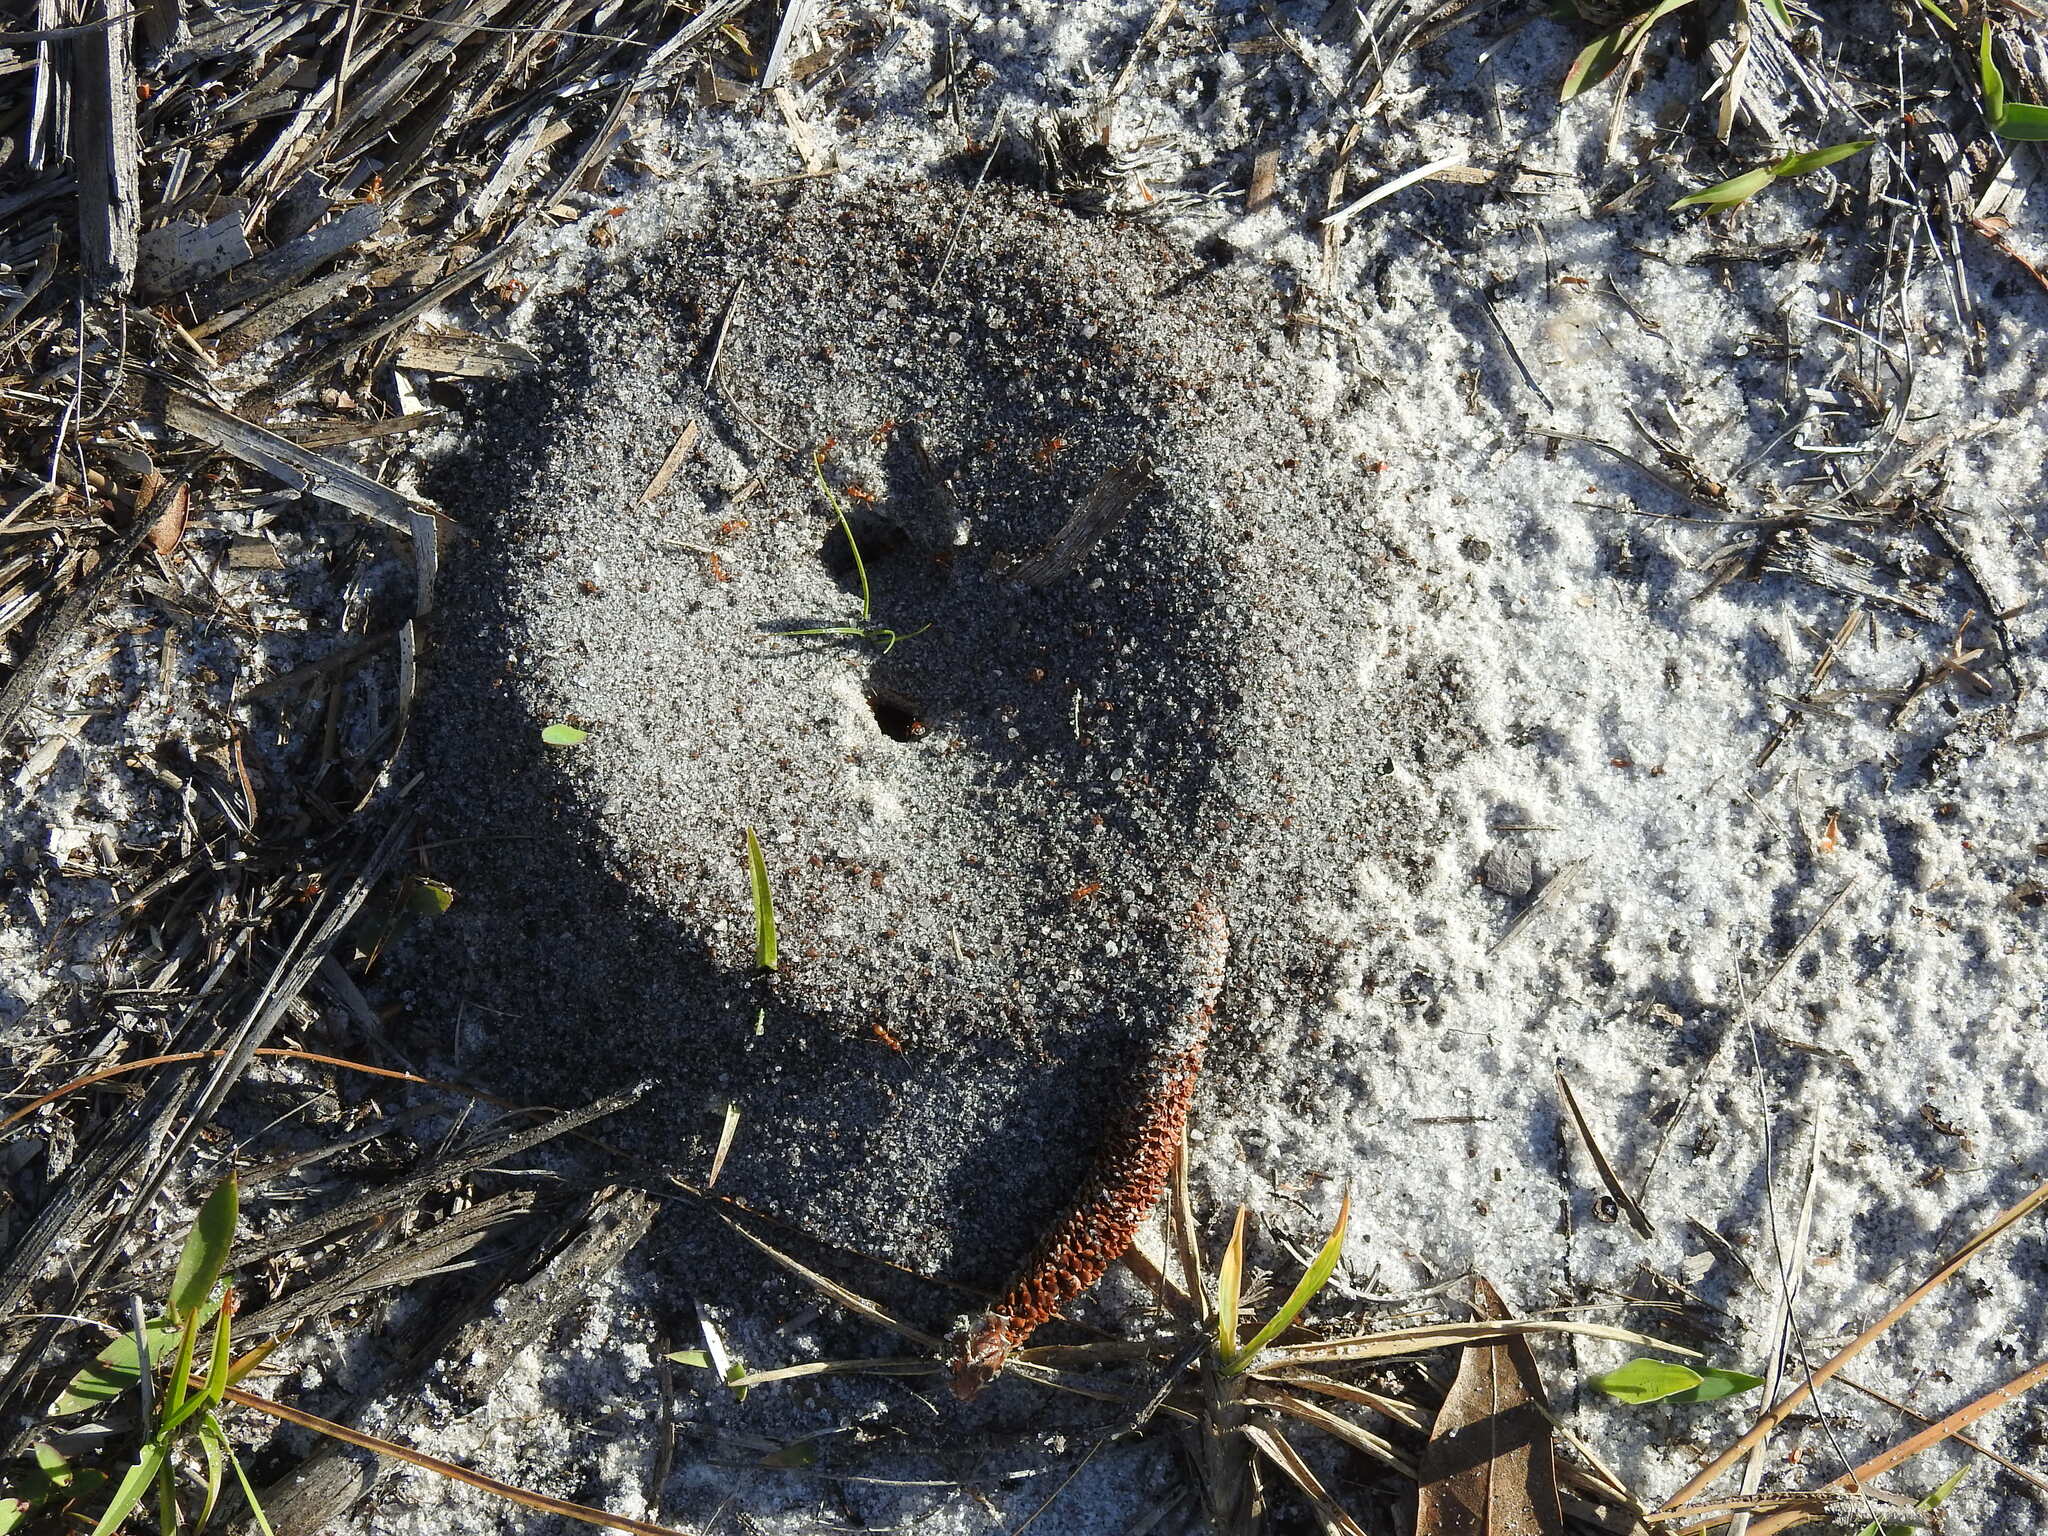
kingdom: Animalia
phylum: Arthropoda
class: Insecta
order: Hymenoptera
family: Formicidae
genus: Dorymyrmex
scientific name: Dorymyrmex bureni
